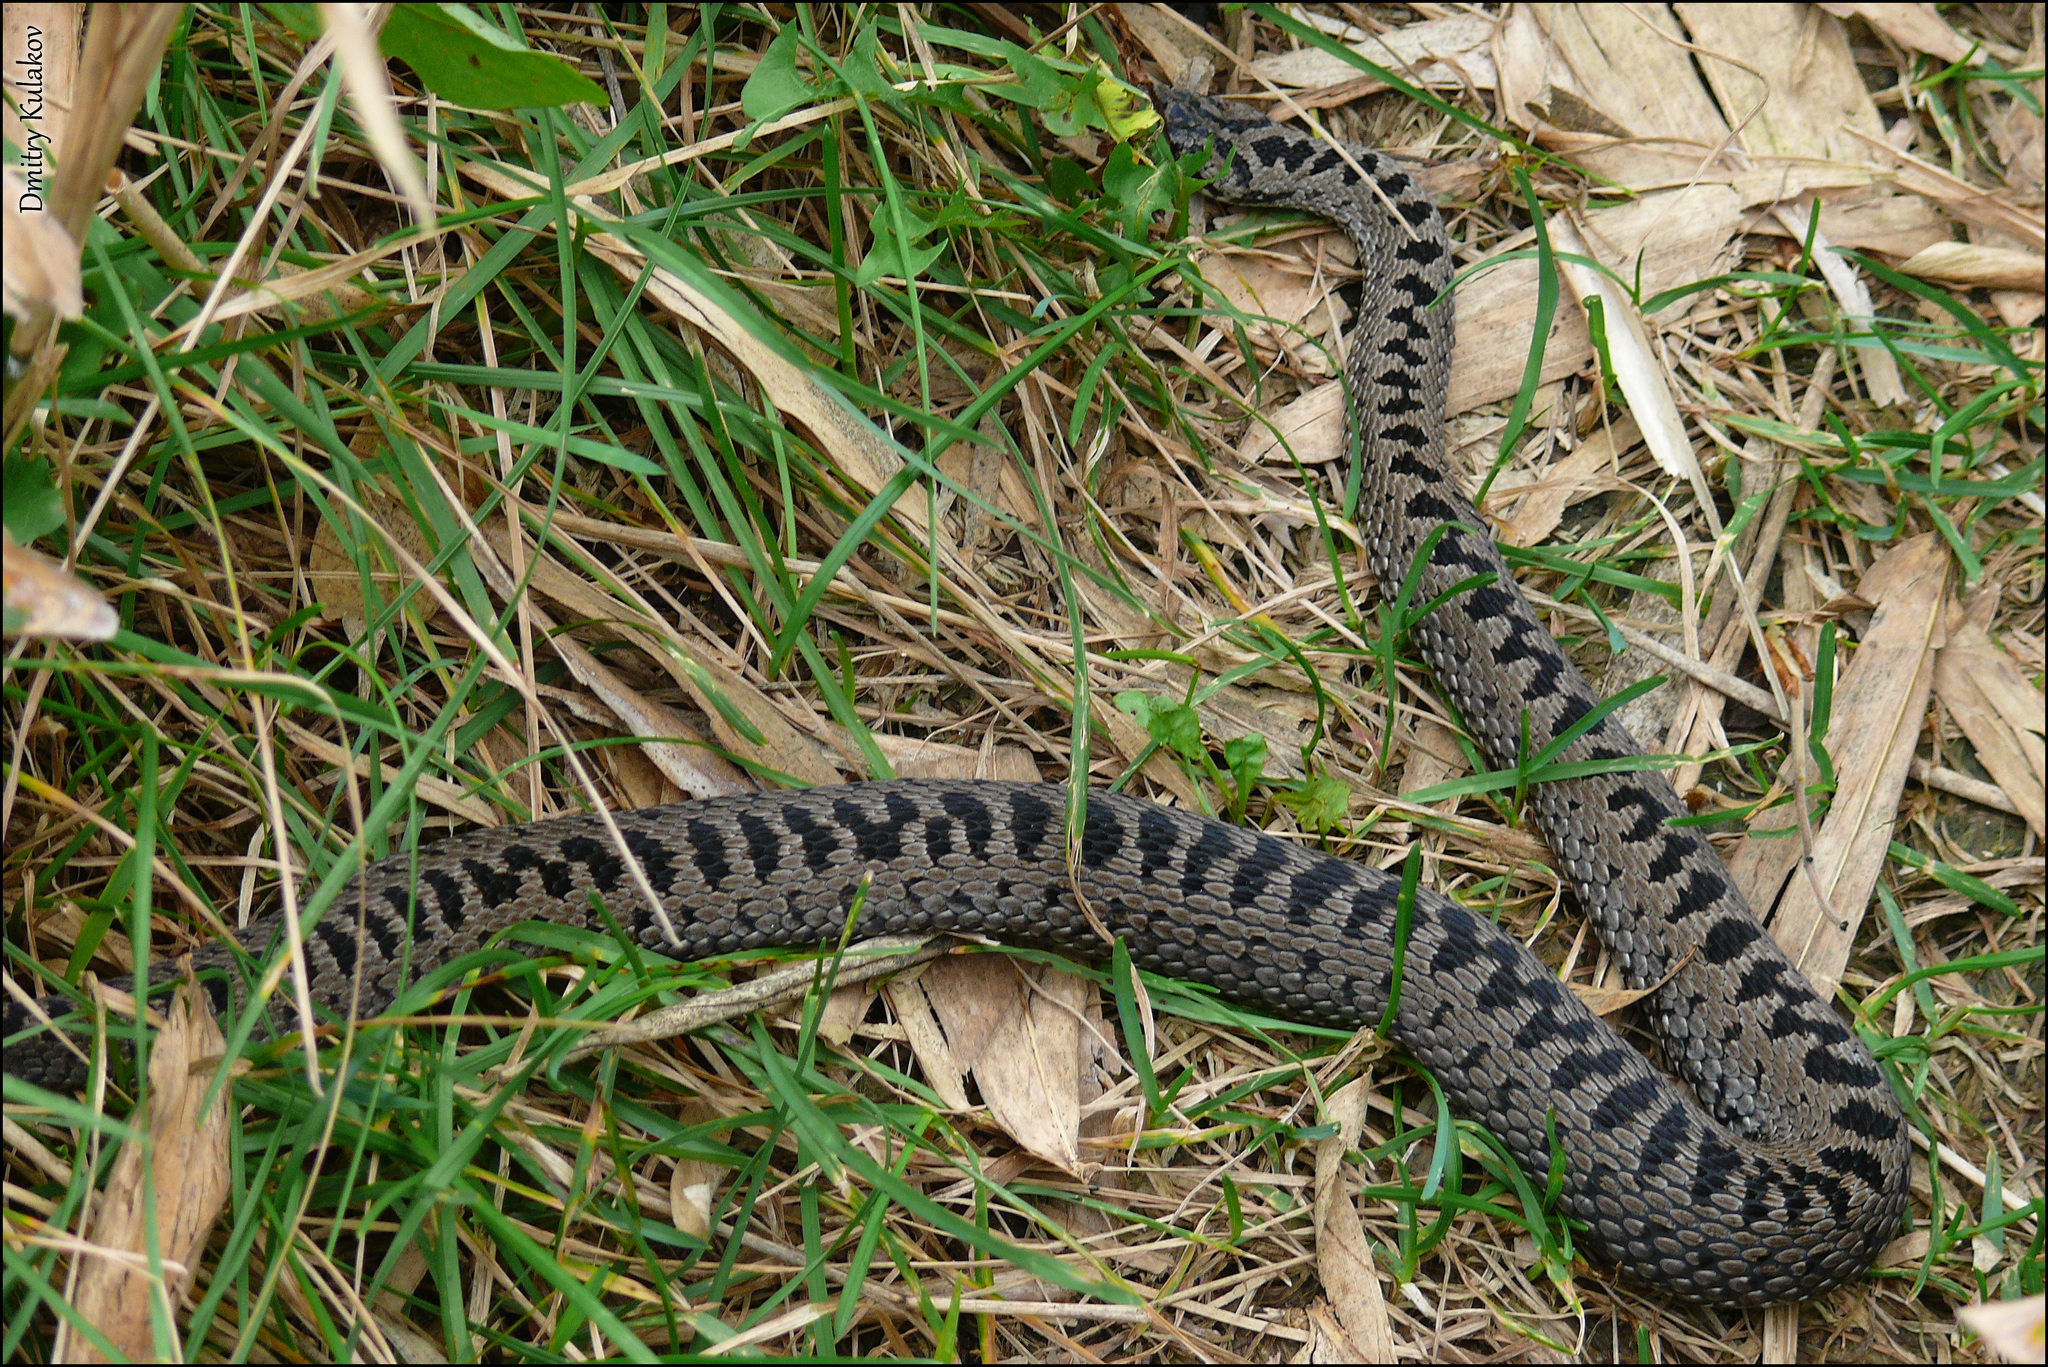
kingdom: Animalia
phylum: Chordata
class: Squamata
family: Viperidae
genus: Vipera
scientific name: Vipera berus
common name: Adder
